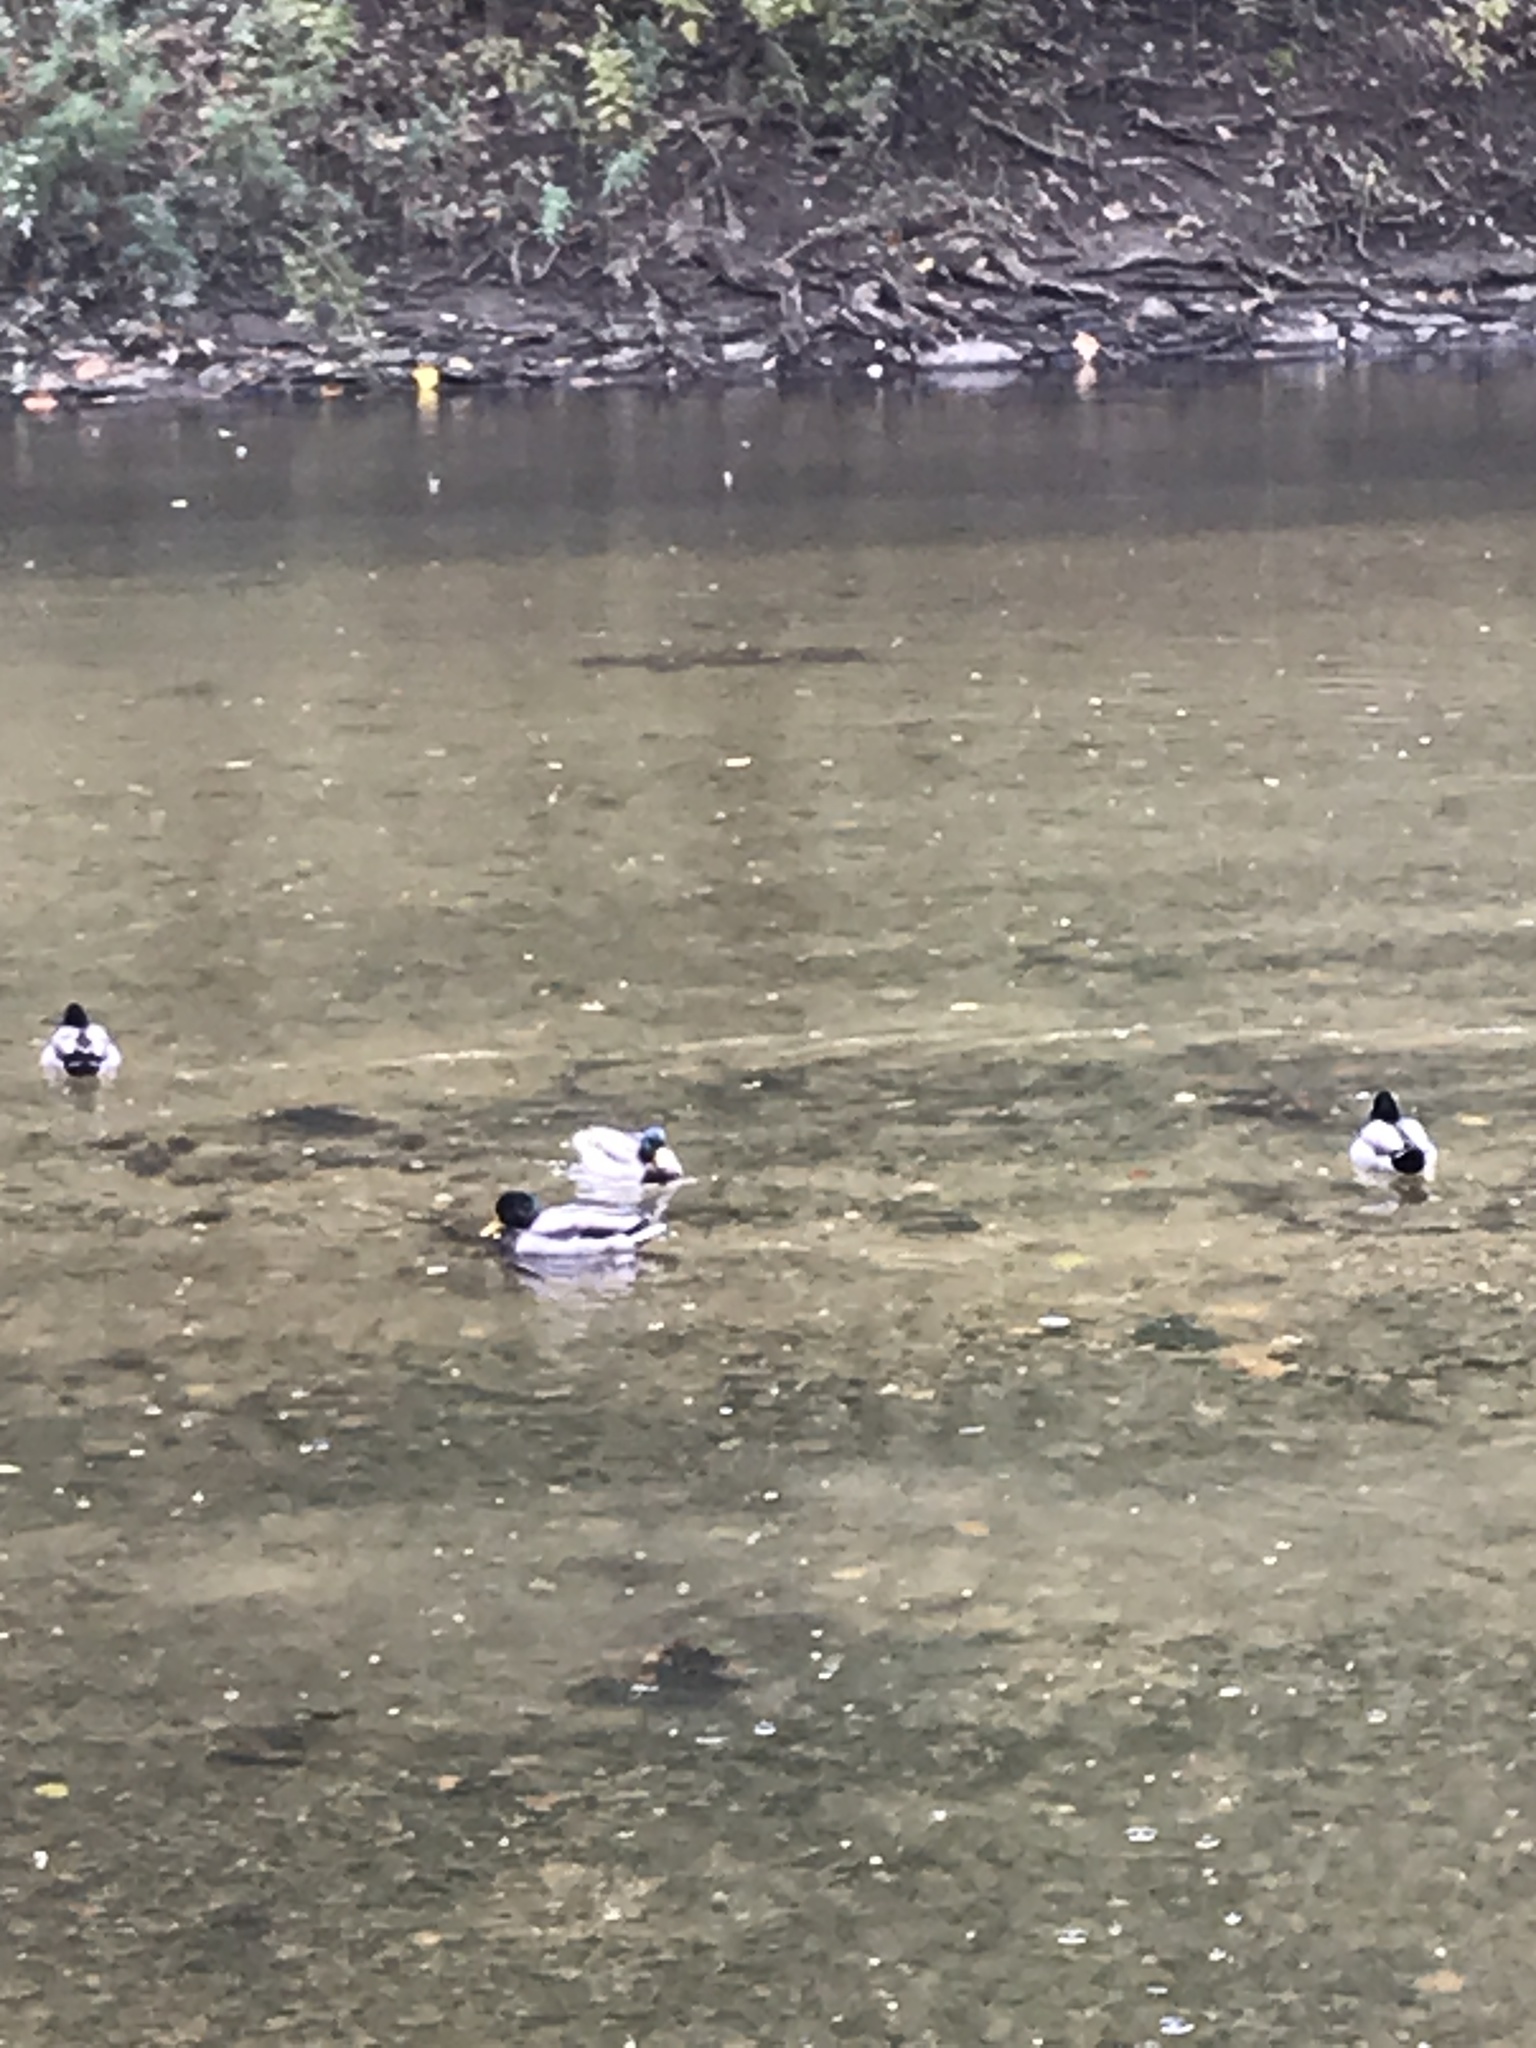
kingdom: Animalia
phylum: Chordata
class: Aves
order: Anseriformes
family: Anatidae
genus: Anas
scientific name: Anas platyrhynchos
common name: Mallard
